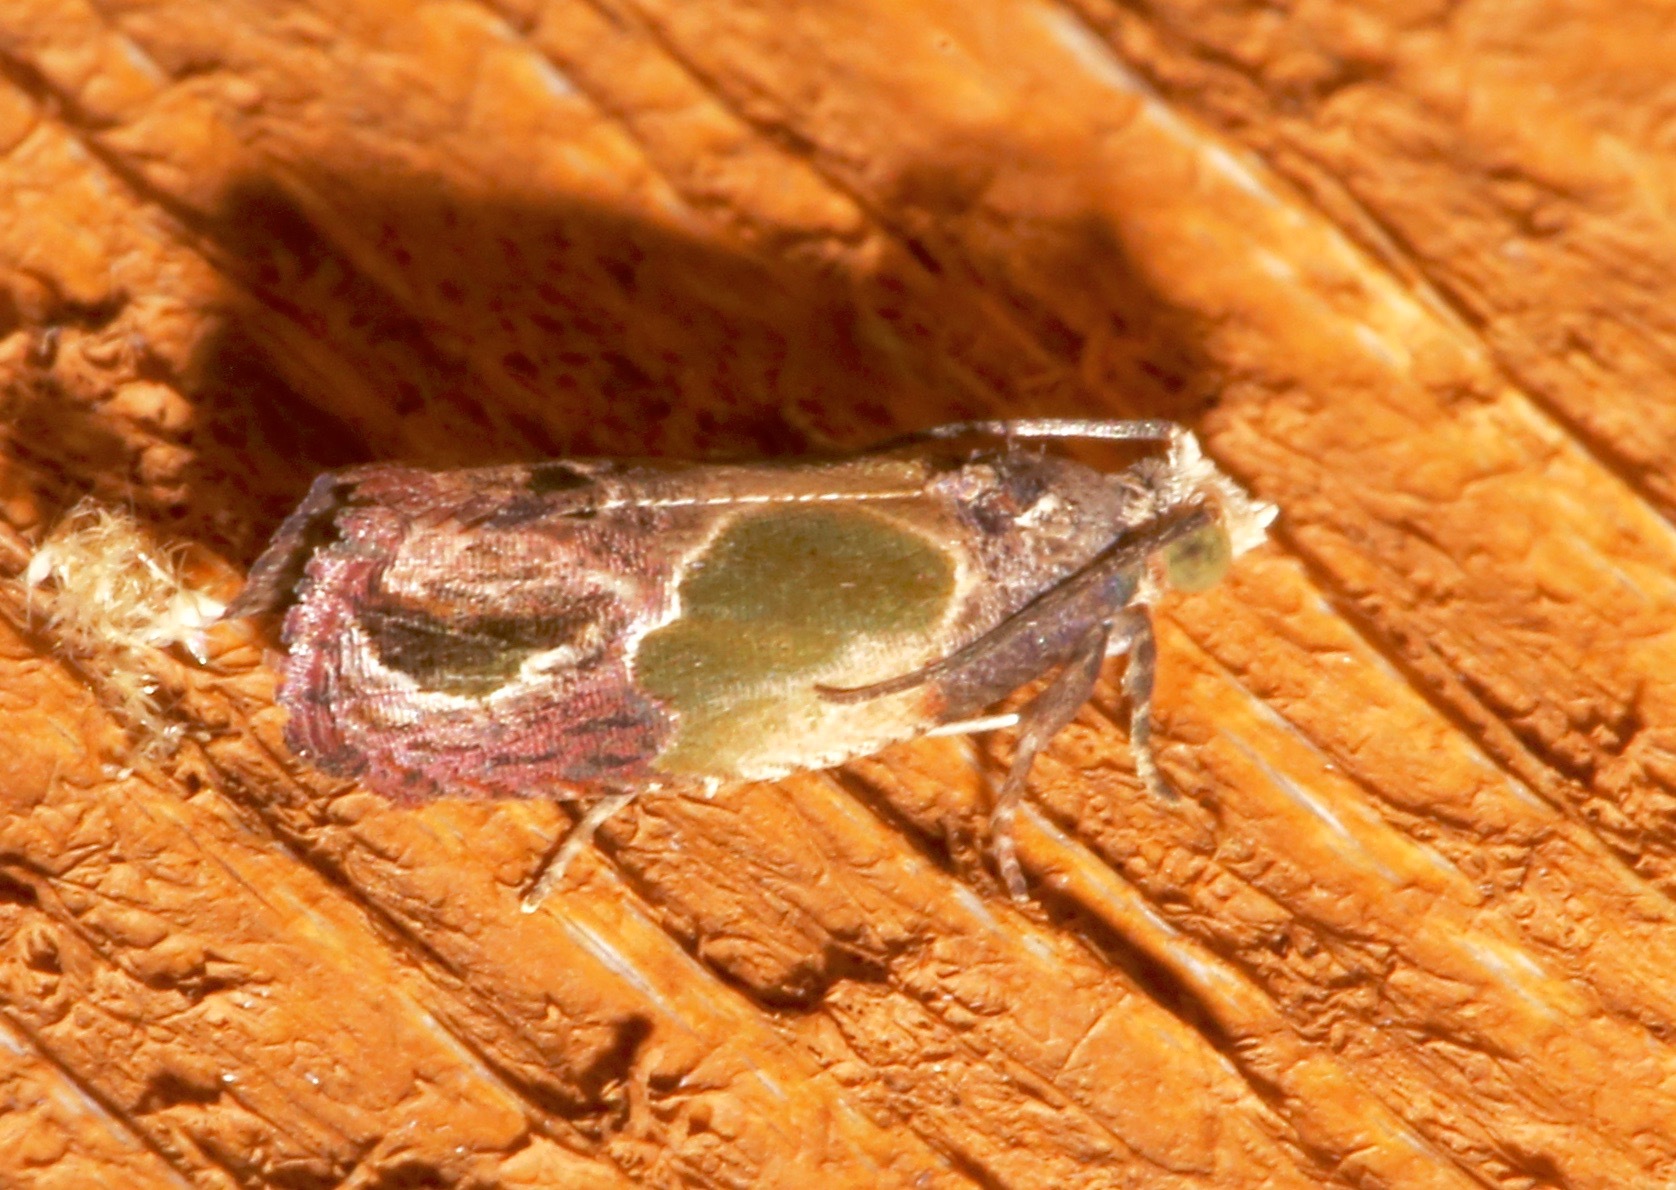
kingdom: Animalia
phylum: Arthropoda
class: Insecta
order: Lepidoptera
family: Tortricidae
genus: Eumarozia
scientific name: Eumarozia malachitana
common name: Sculptured moth
